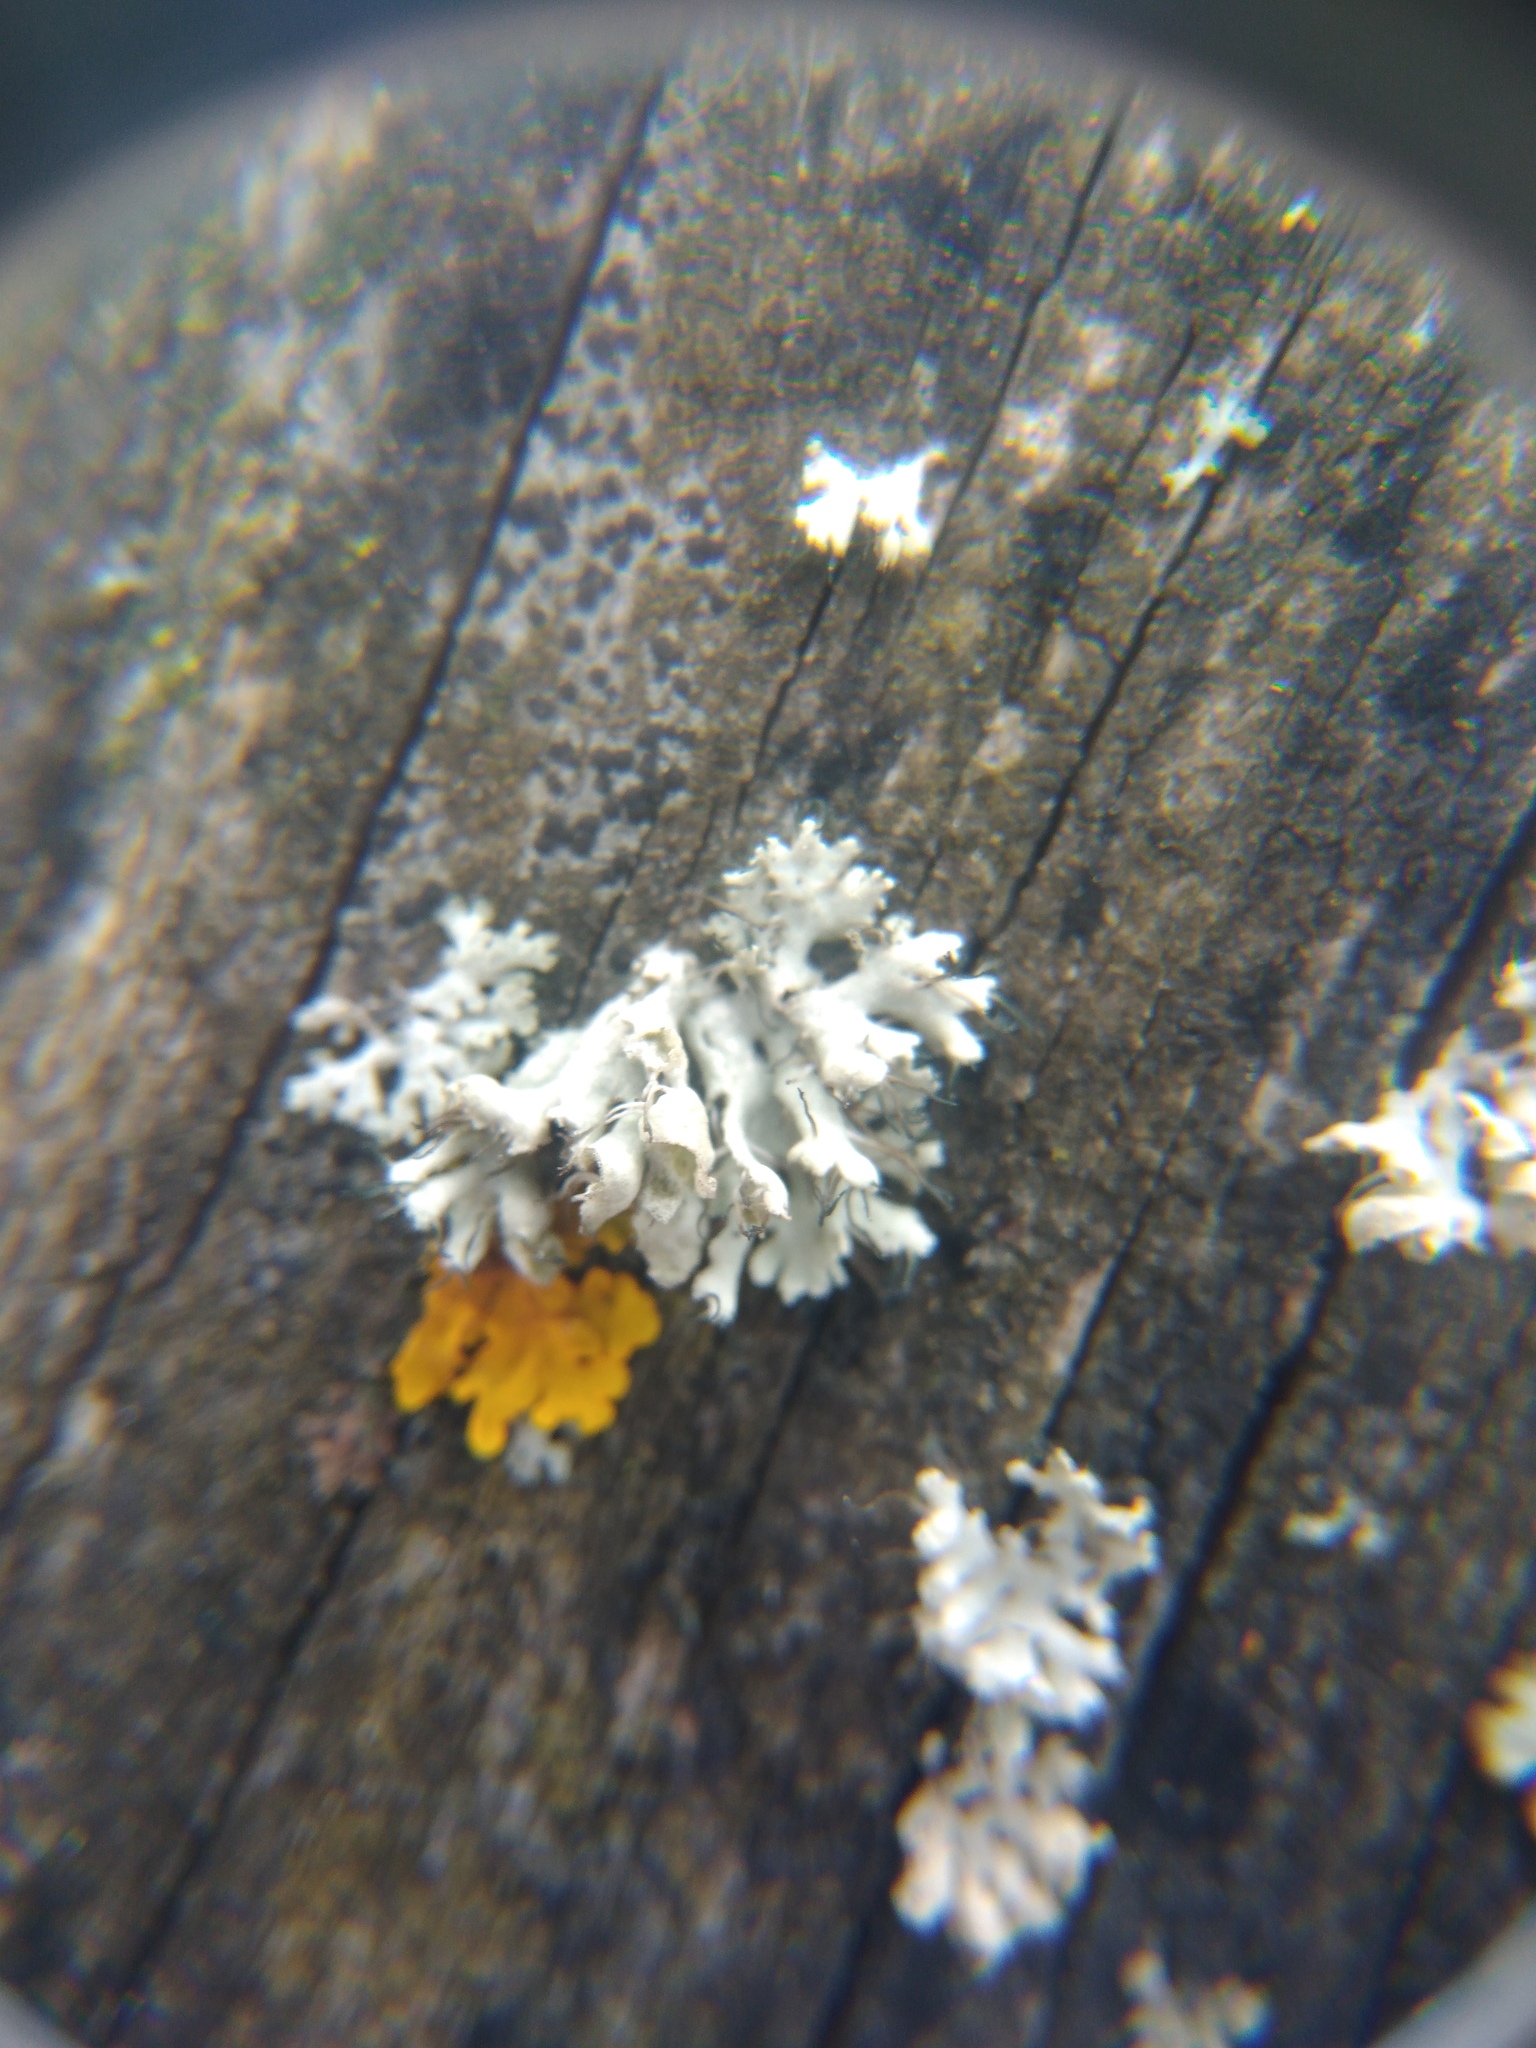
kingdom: Fungi
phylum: Ascomycota
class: Lecanoromycetes
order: Caliciales
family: Physciaceae
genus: Physcia
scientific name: Physcia adscendens
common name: Hooded rosette lichen
